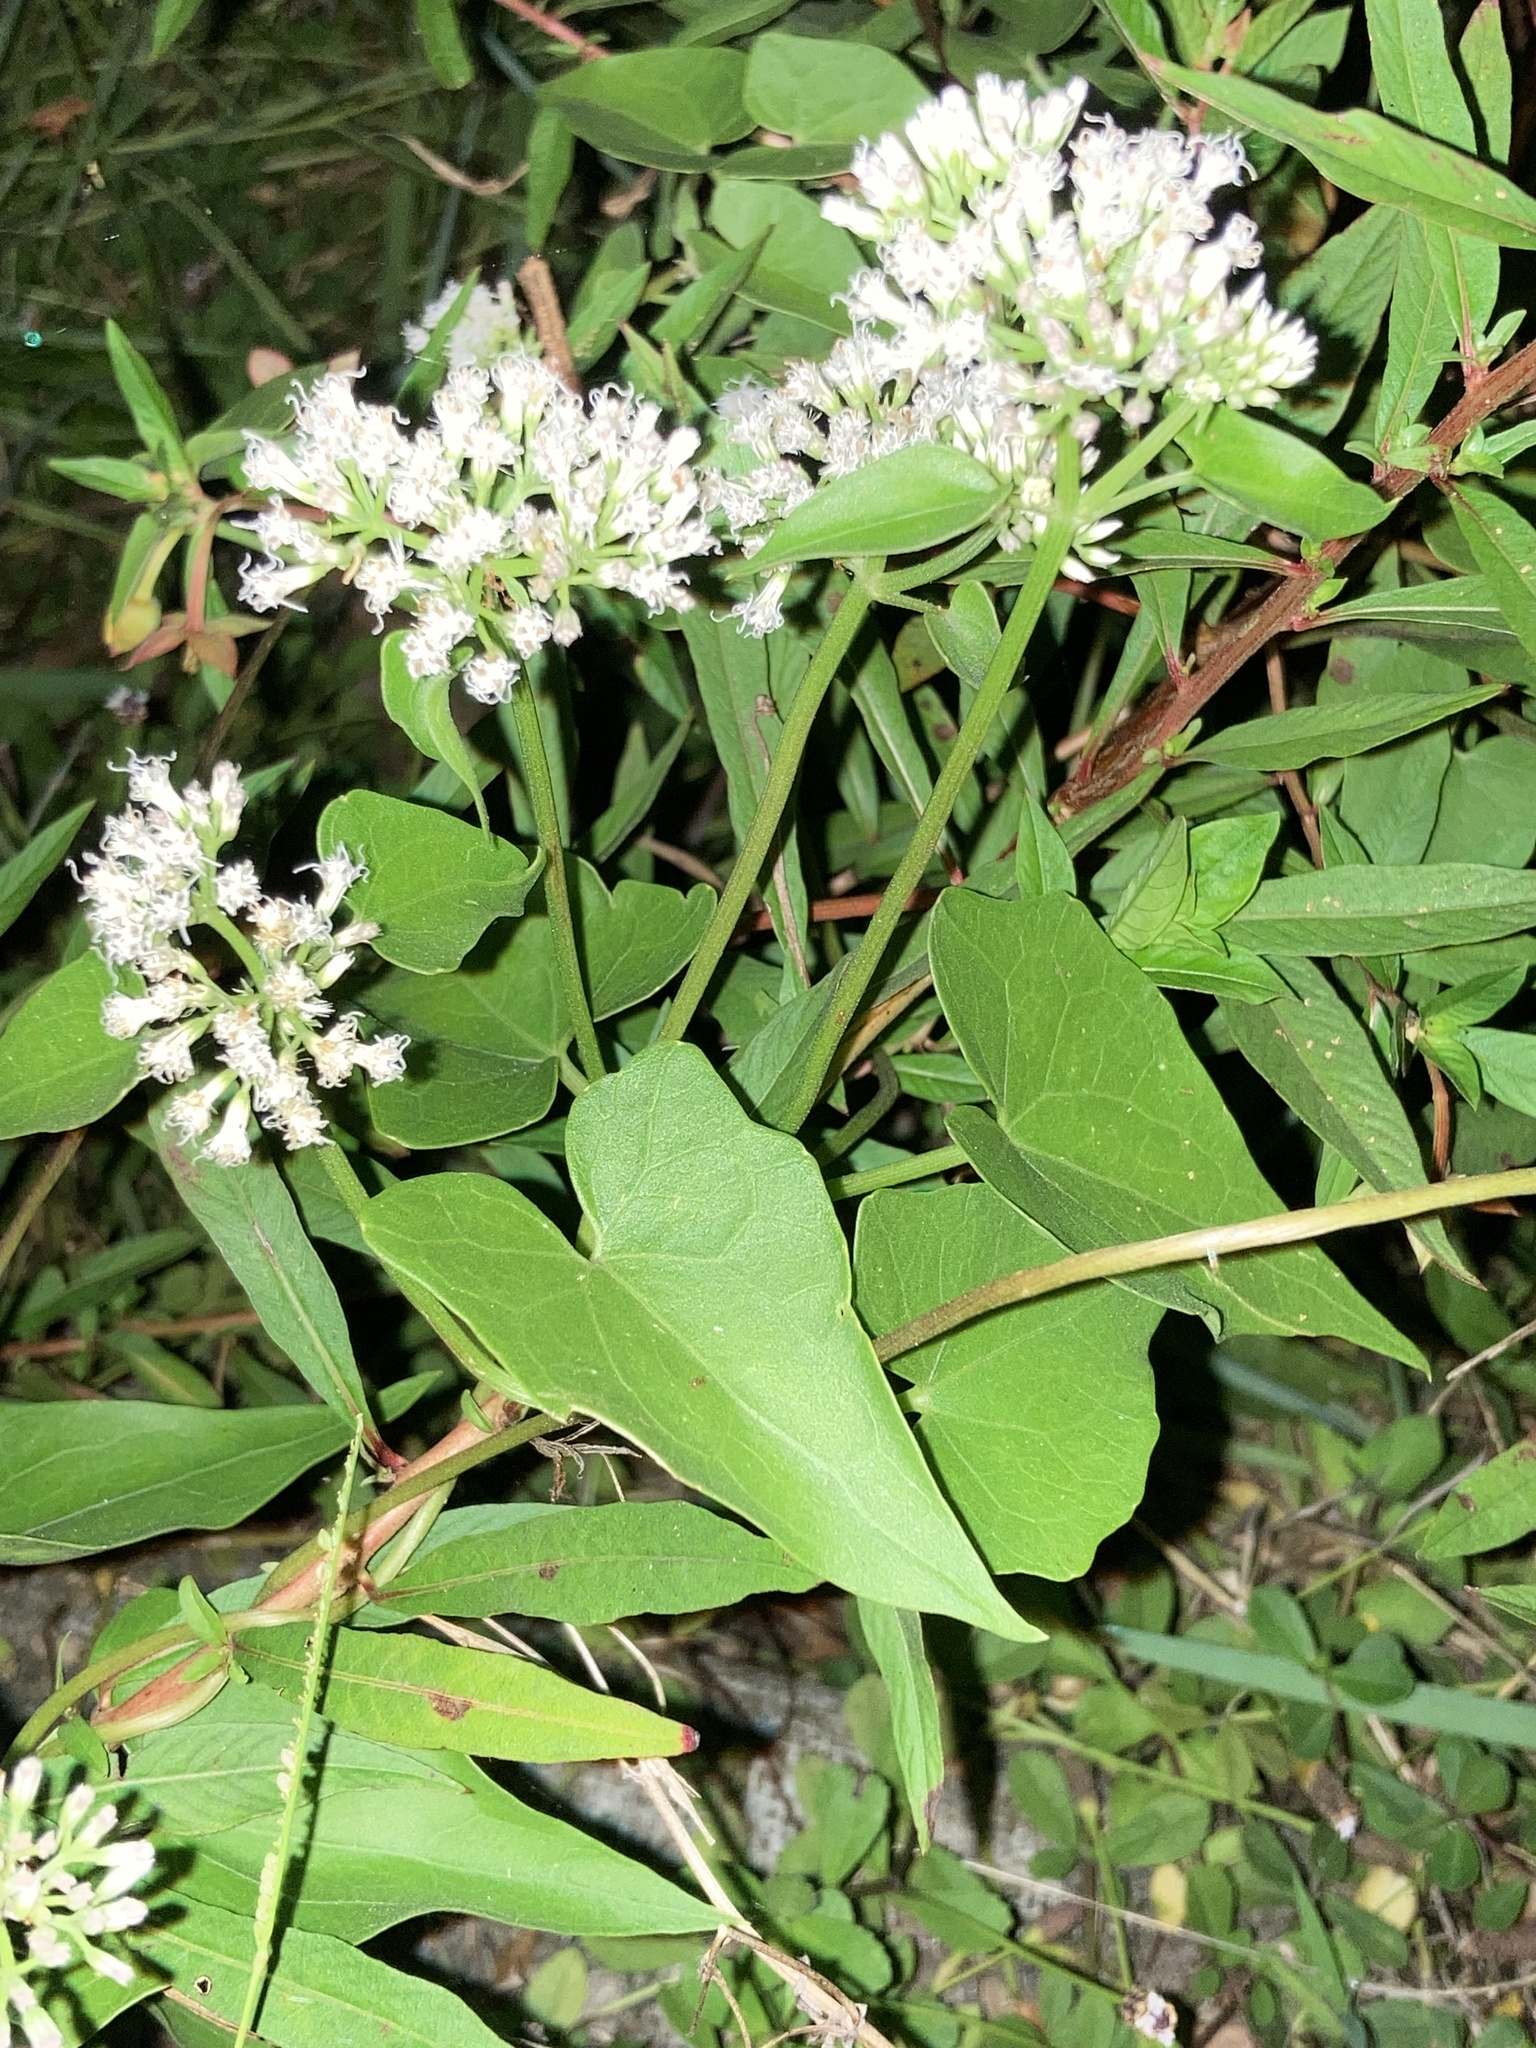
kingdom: Plantae
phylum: Tracheophyta
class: Magnoliopsida
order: Asterales
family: Asteraceae
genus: Mikania
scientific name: Mikania scandens
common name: Climbing hempvine
